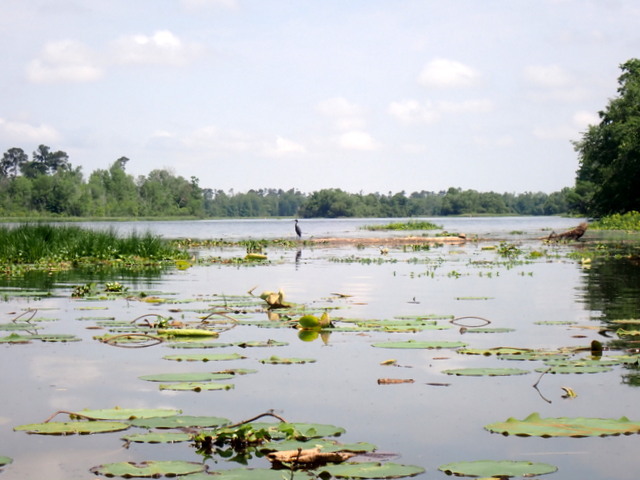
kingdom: Plantae
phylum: Tracheophyta
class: Magnoliopsida
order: Proteales
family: Nelumbonaceae
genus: Nelumbo
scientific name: Nelumbo lutea
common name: American lotus
